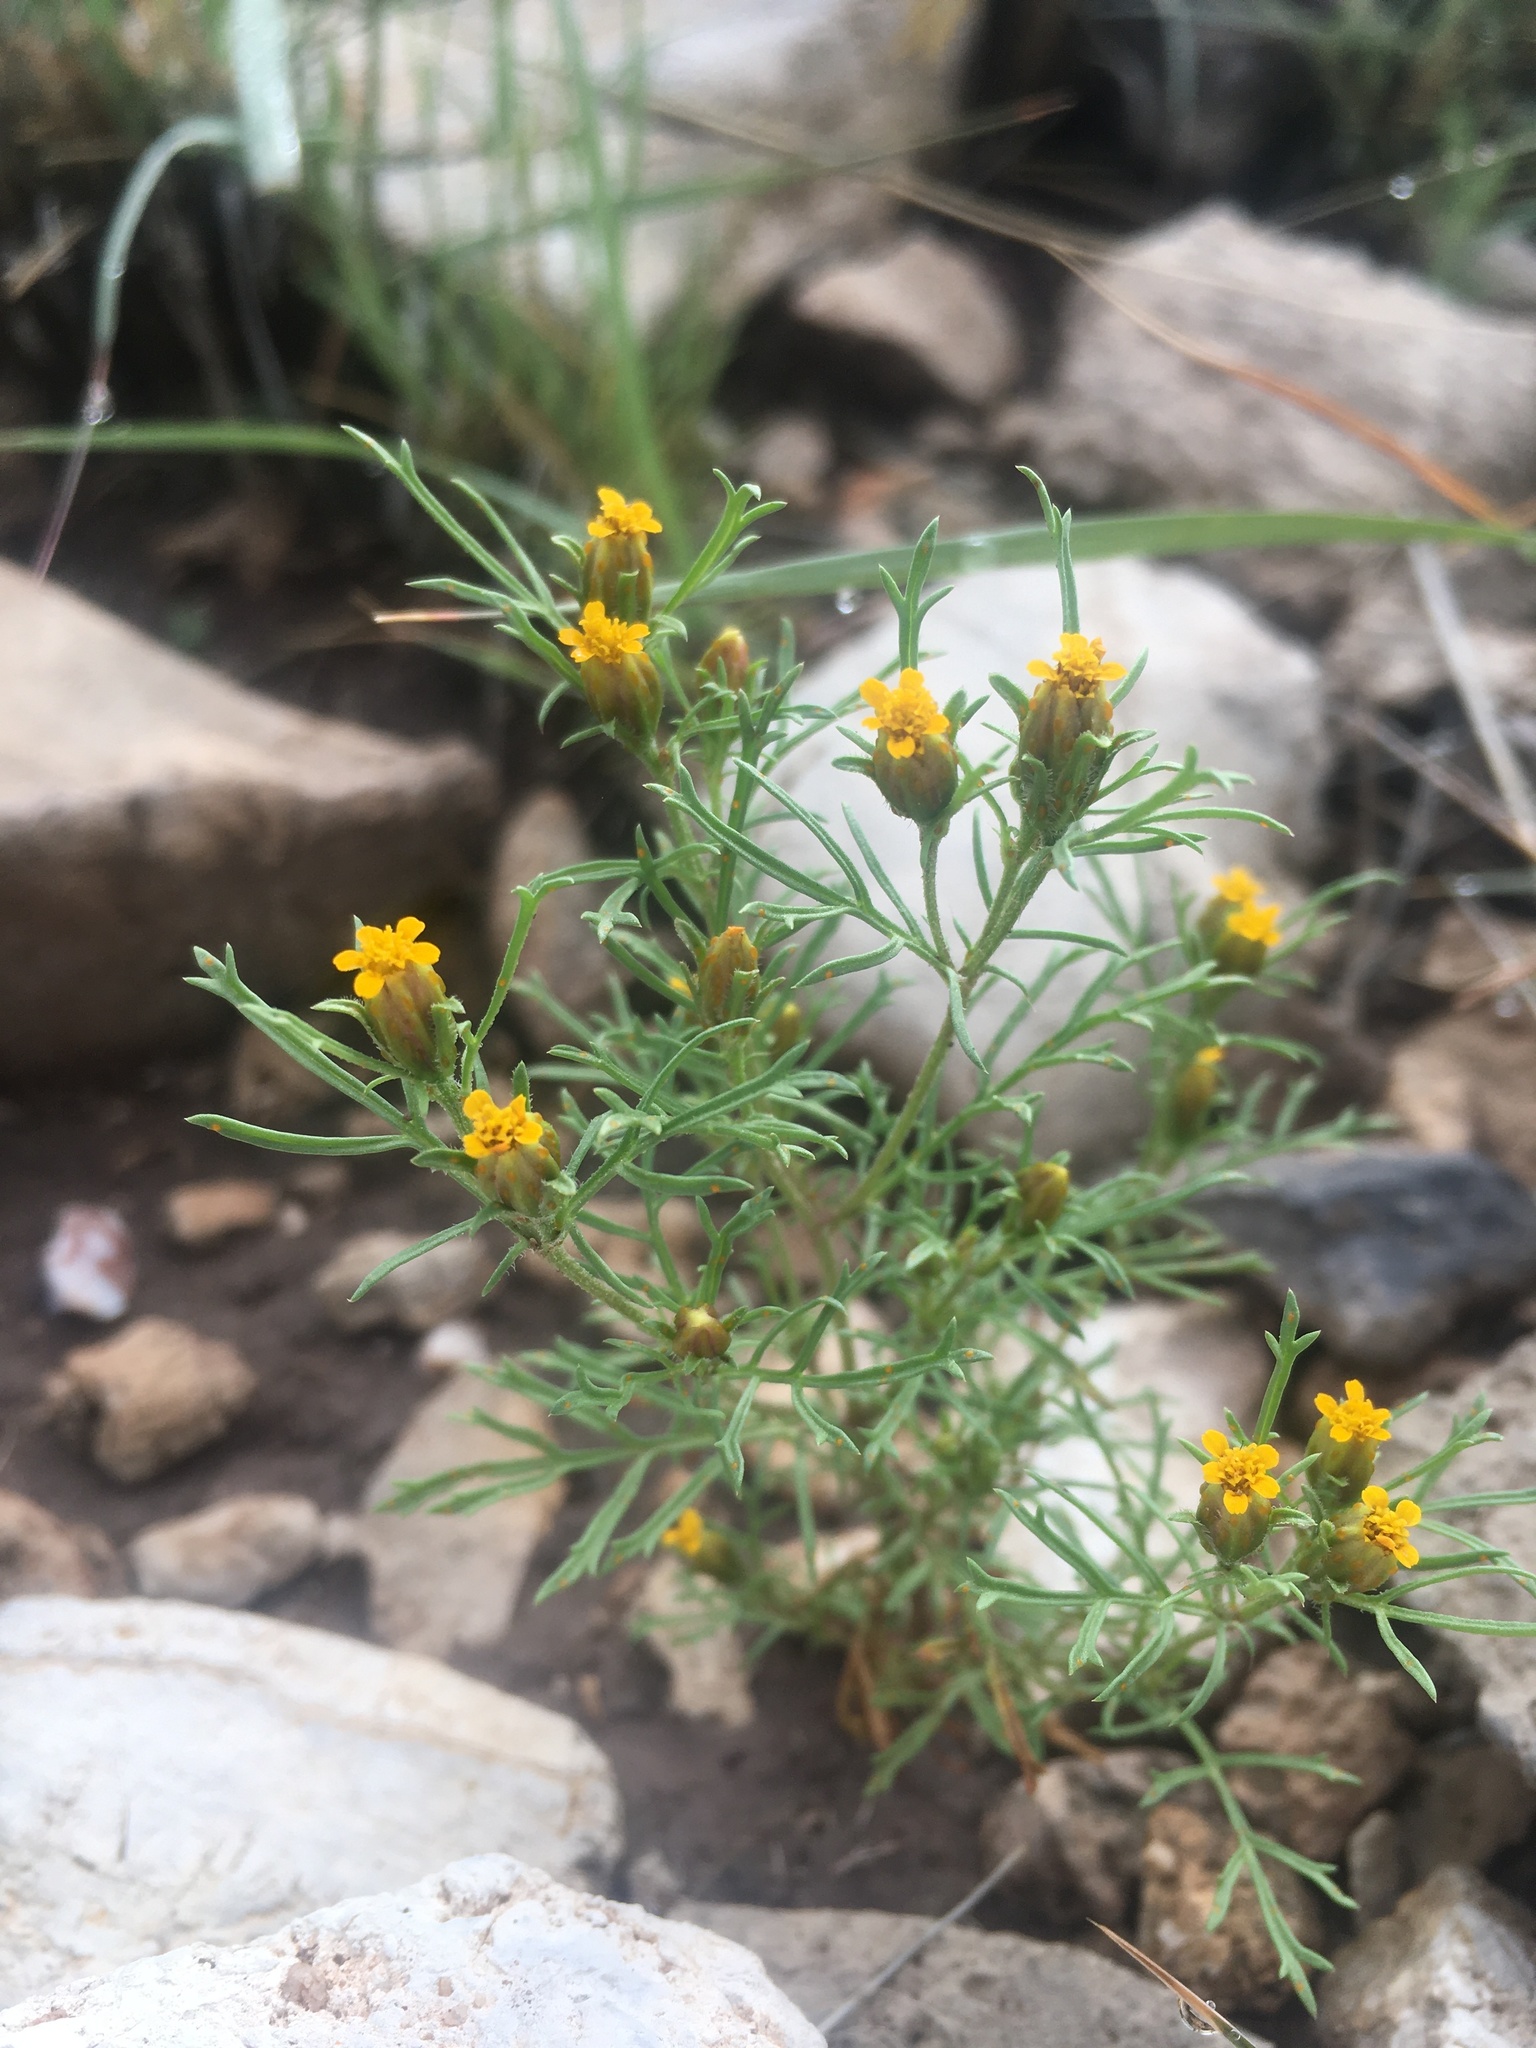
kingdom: Plantae
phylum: Tracheophyta
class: Magnoliopsida
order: Asterales
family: Asteraceae
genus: Dyssodia
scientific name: Dyssodia papposa
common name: Dogweed
